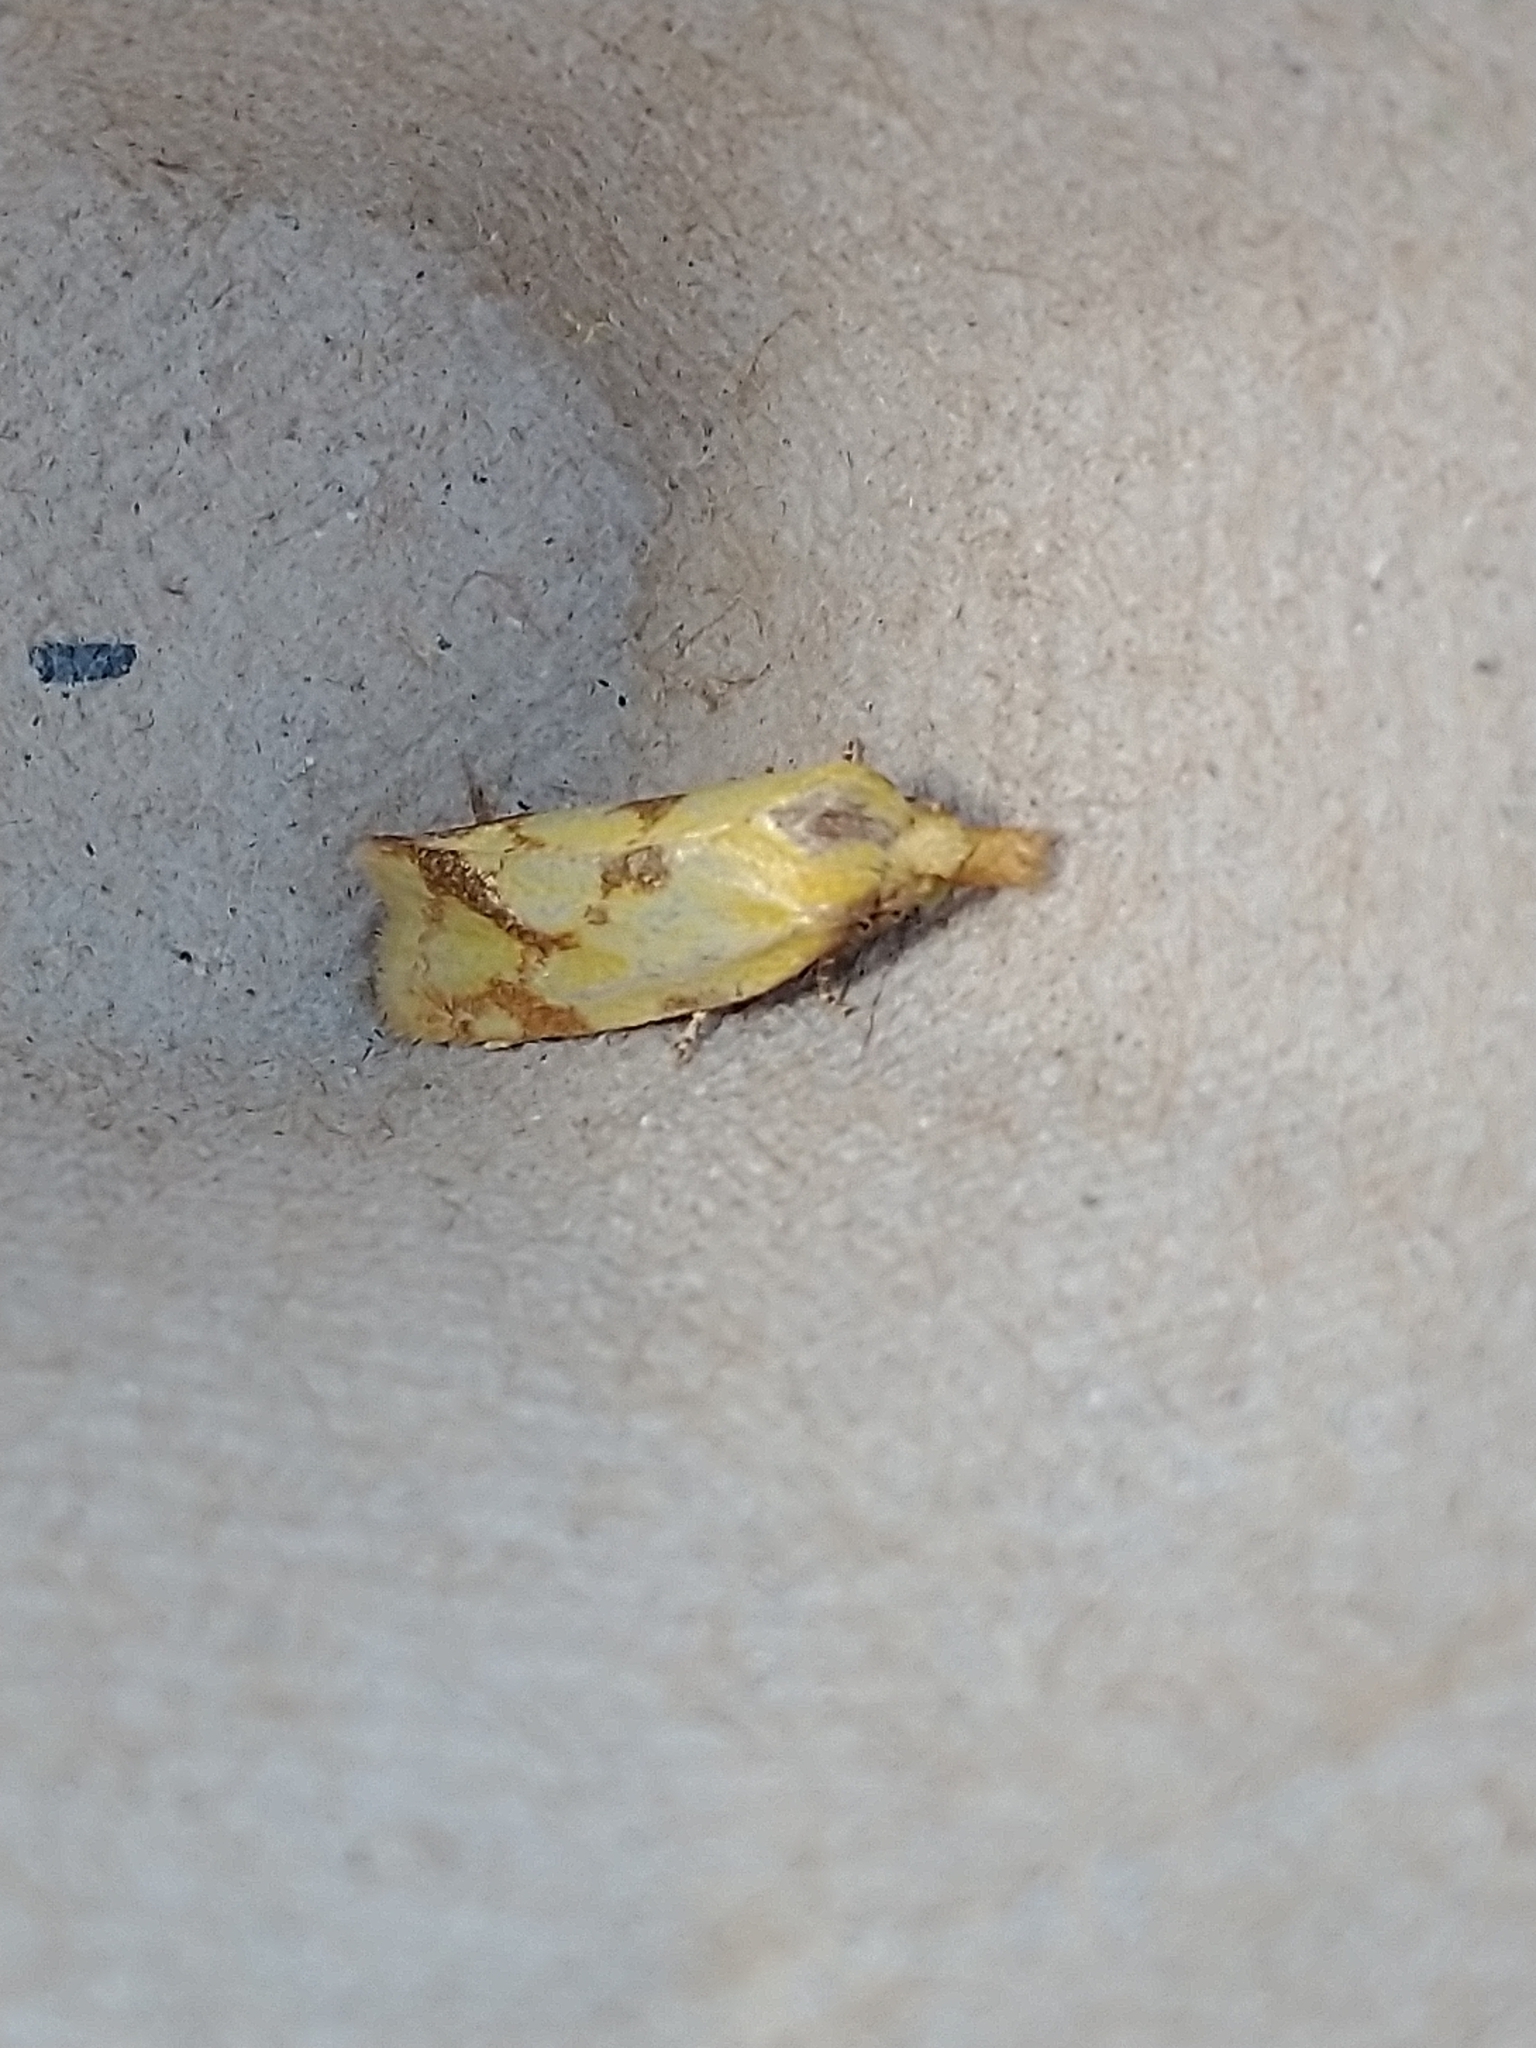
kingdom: Animalia
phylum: Arthropoda
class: Insecta
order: Lepidoptera
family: Tortricidae
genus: Agapeta
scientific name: Agapeta hamana
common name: Common yellow conch
